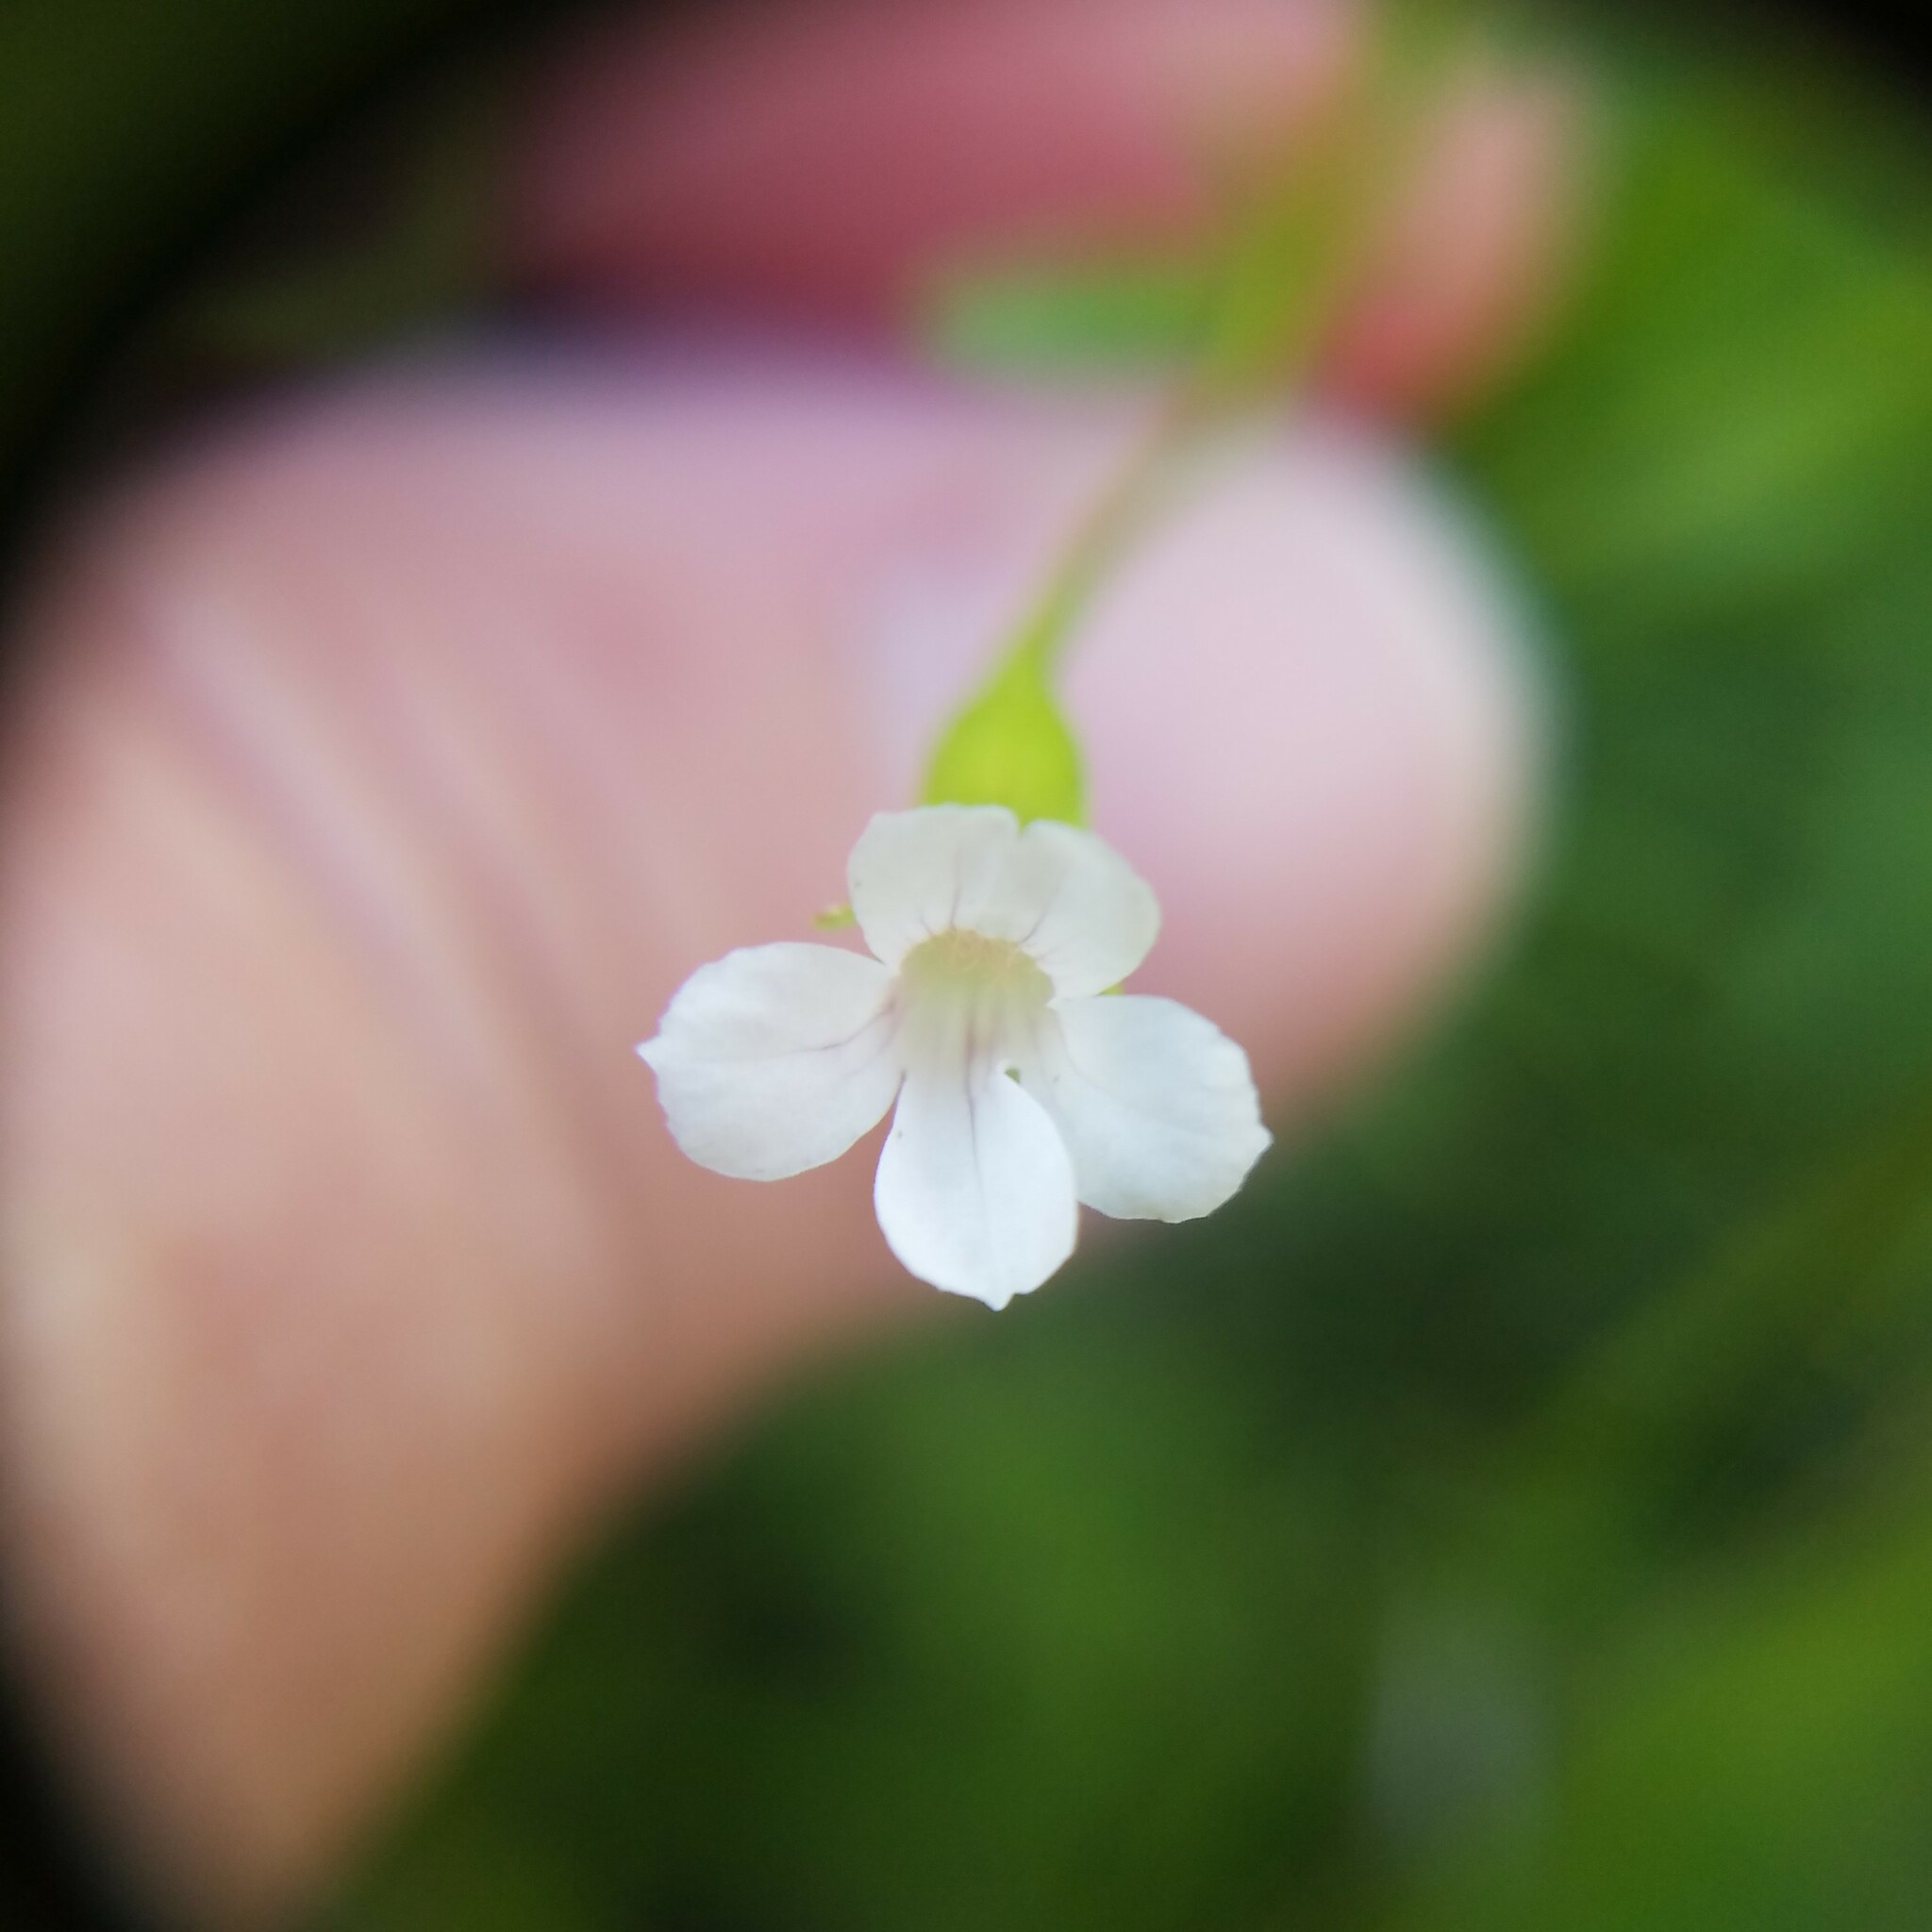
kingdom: Plantae
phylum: Tracheophyta
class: Magnoliopsida
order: Lamiales
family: Plantaginaceae
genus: Mecardonia
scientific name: Mecardonia acuminata
